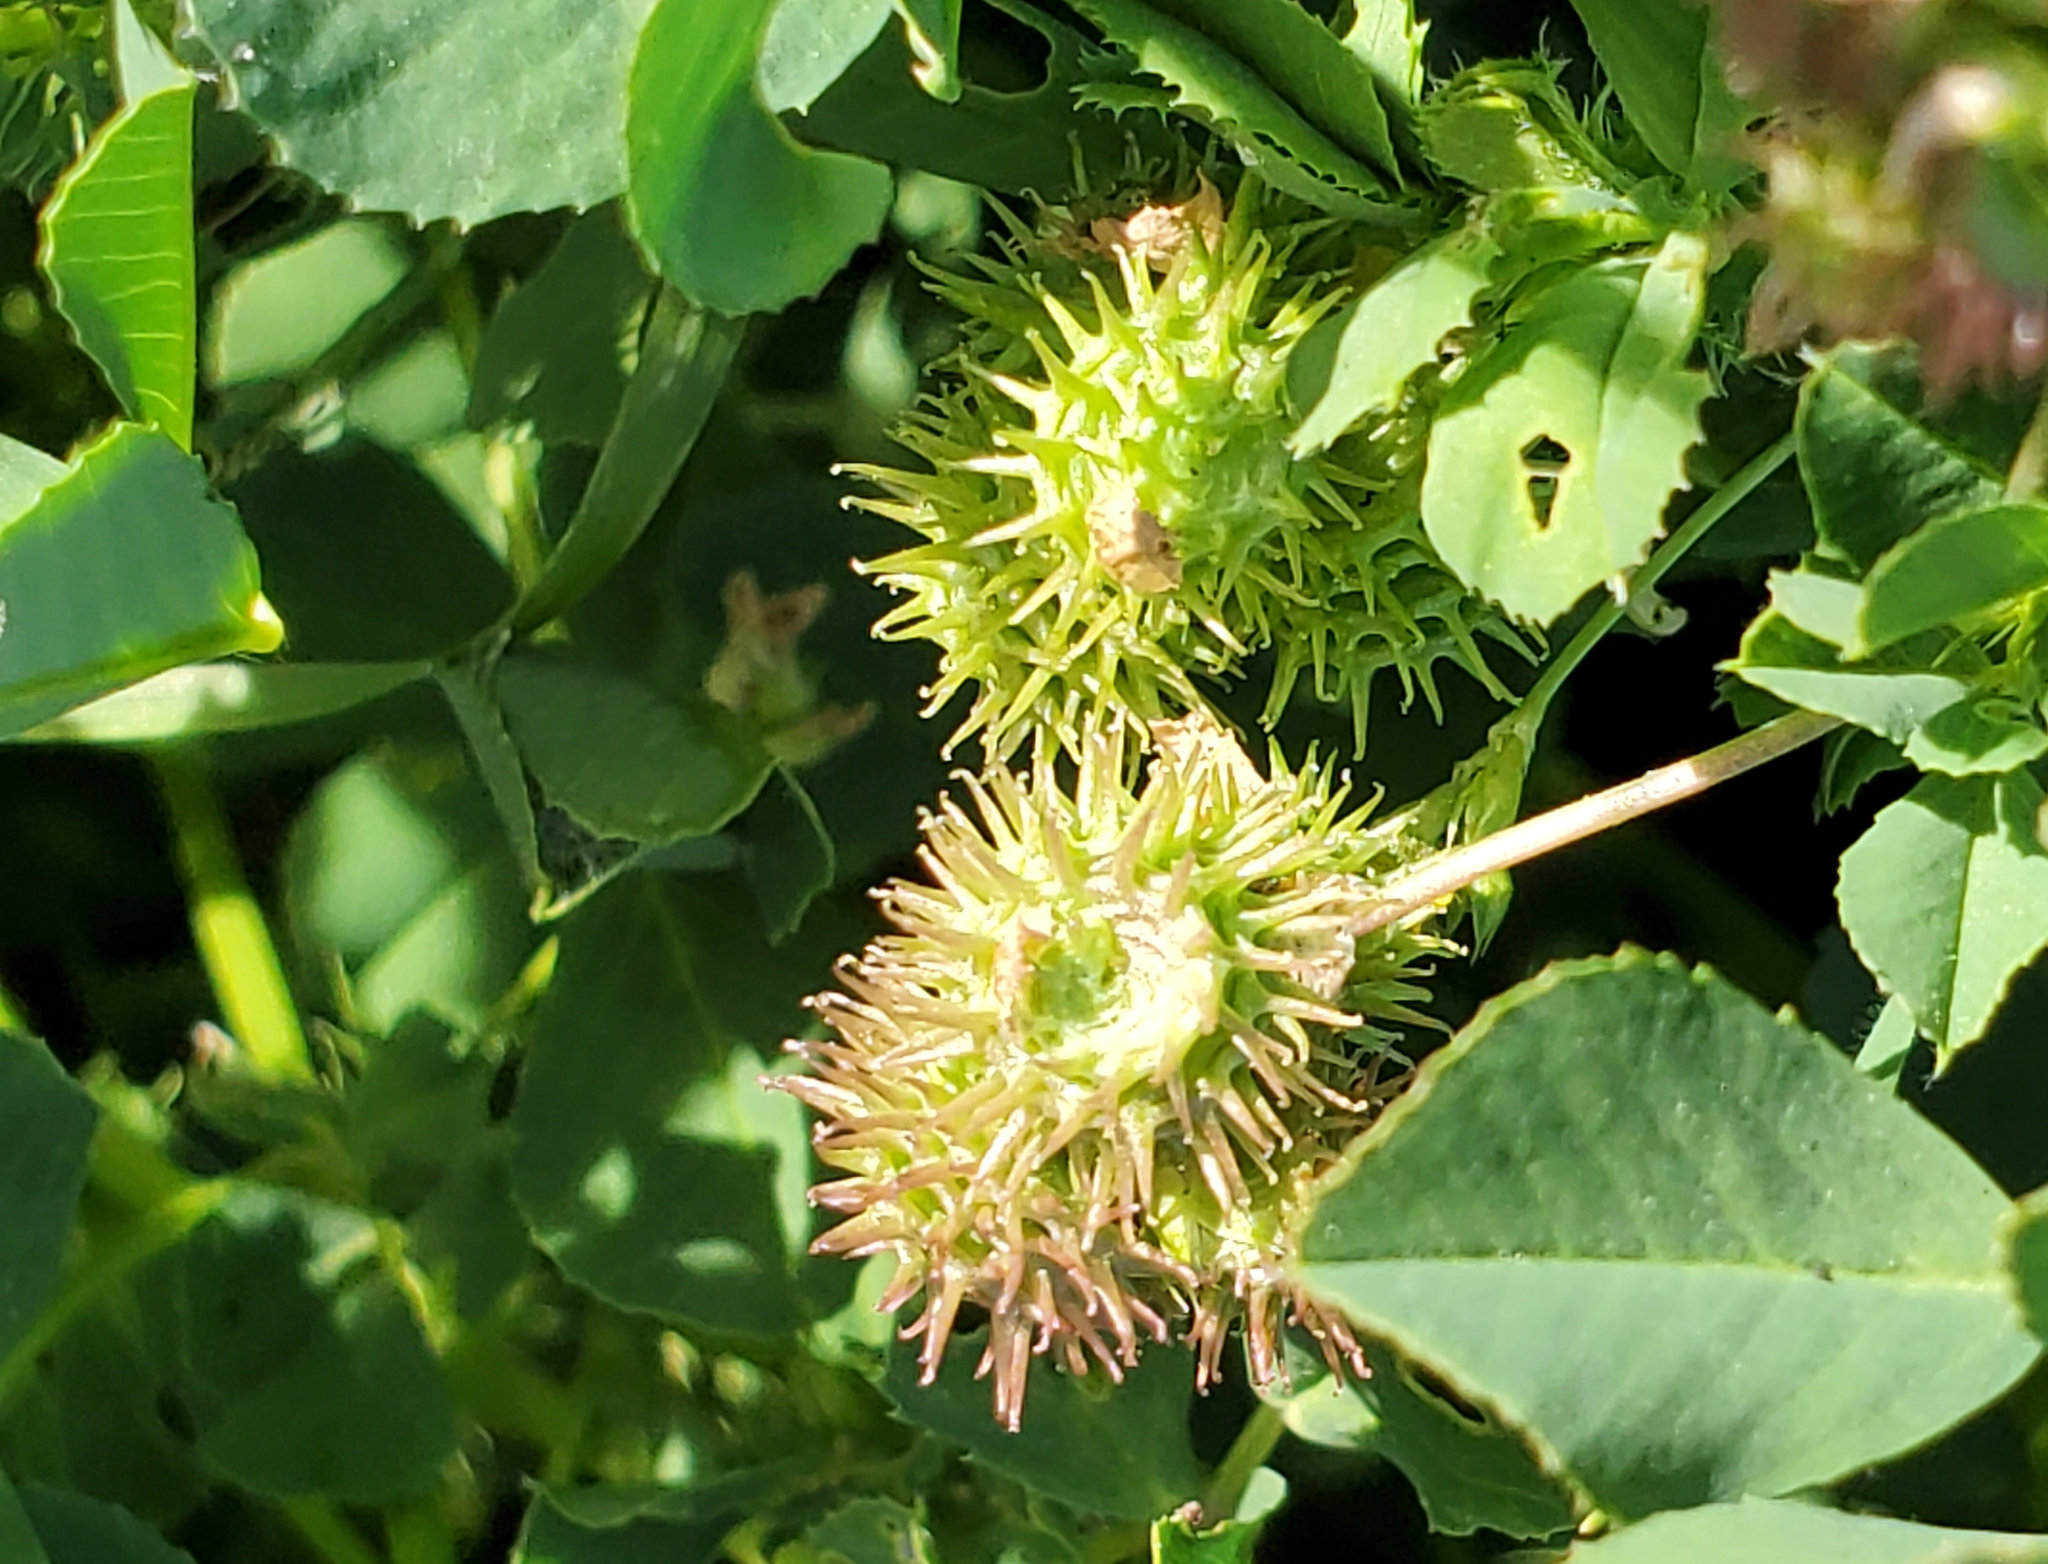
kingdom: Plantae
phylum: Tracheophyta
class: Magnoliopsida
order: Fabales
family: Fabaceae
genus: Medicago
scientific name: Medicago polymorpha
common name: Burclover
